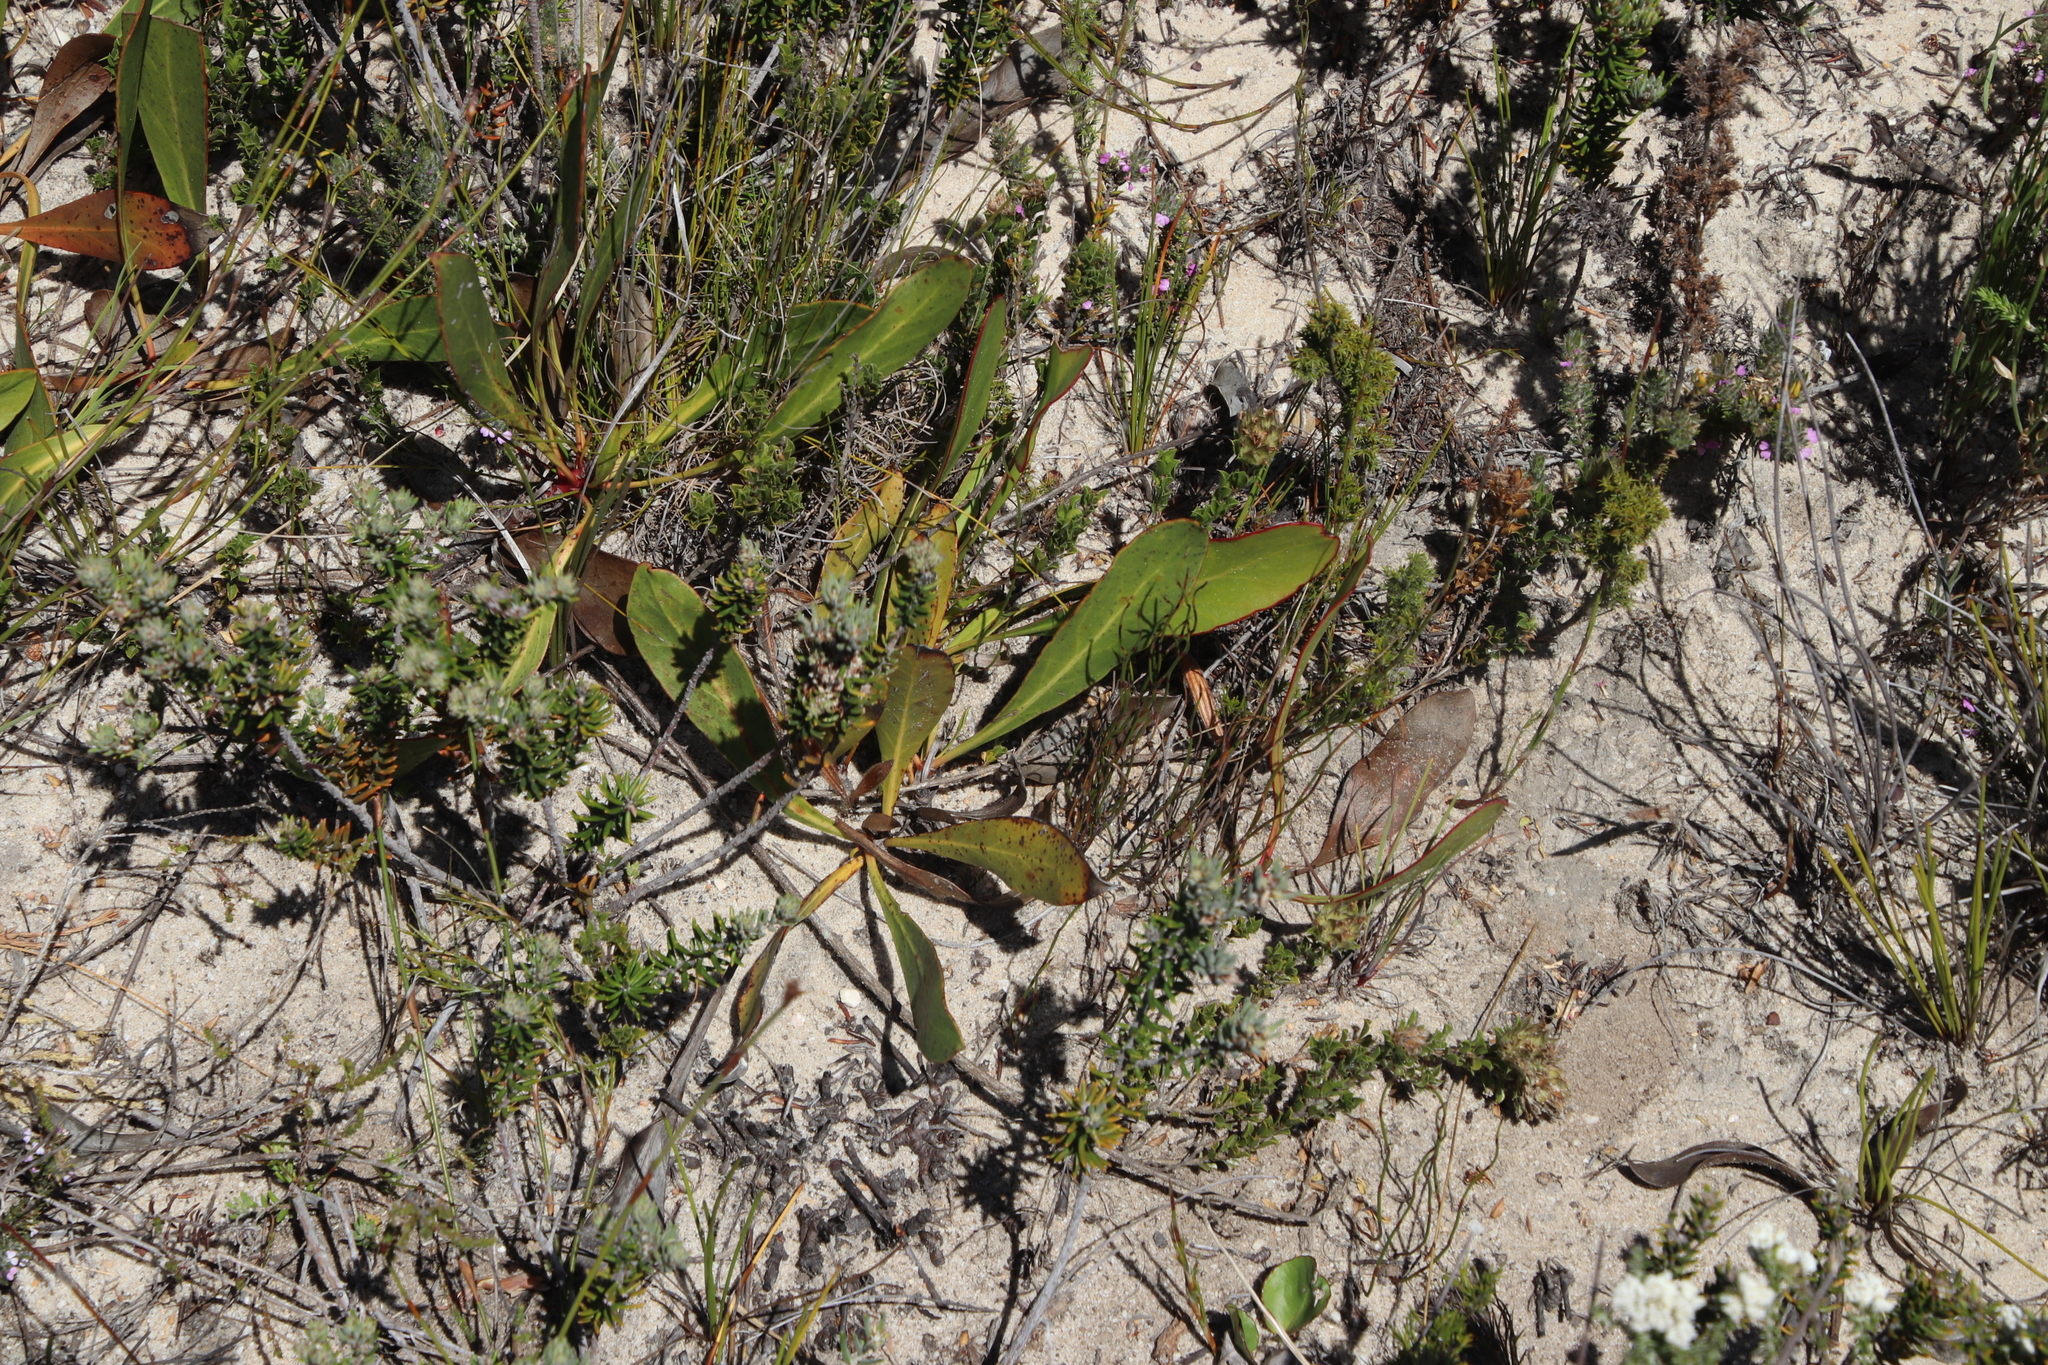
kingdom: Plantae
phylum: Tracheophyta
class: Magnoliopsida
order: Proteales
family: Proteaceae
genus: Protea
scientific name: Protea acaulos
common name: Common ground sugarbush
